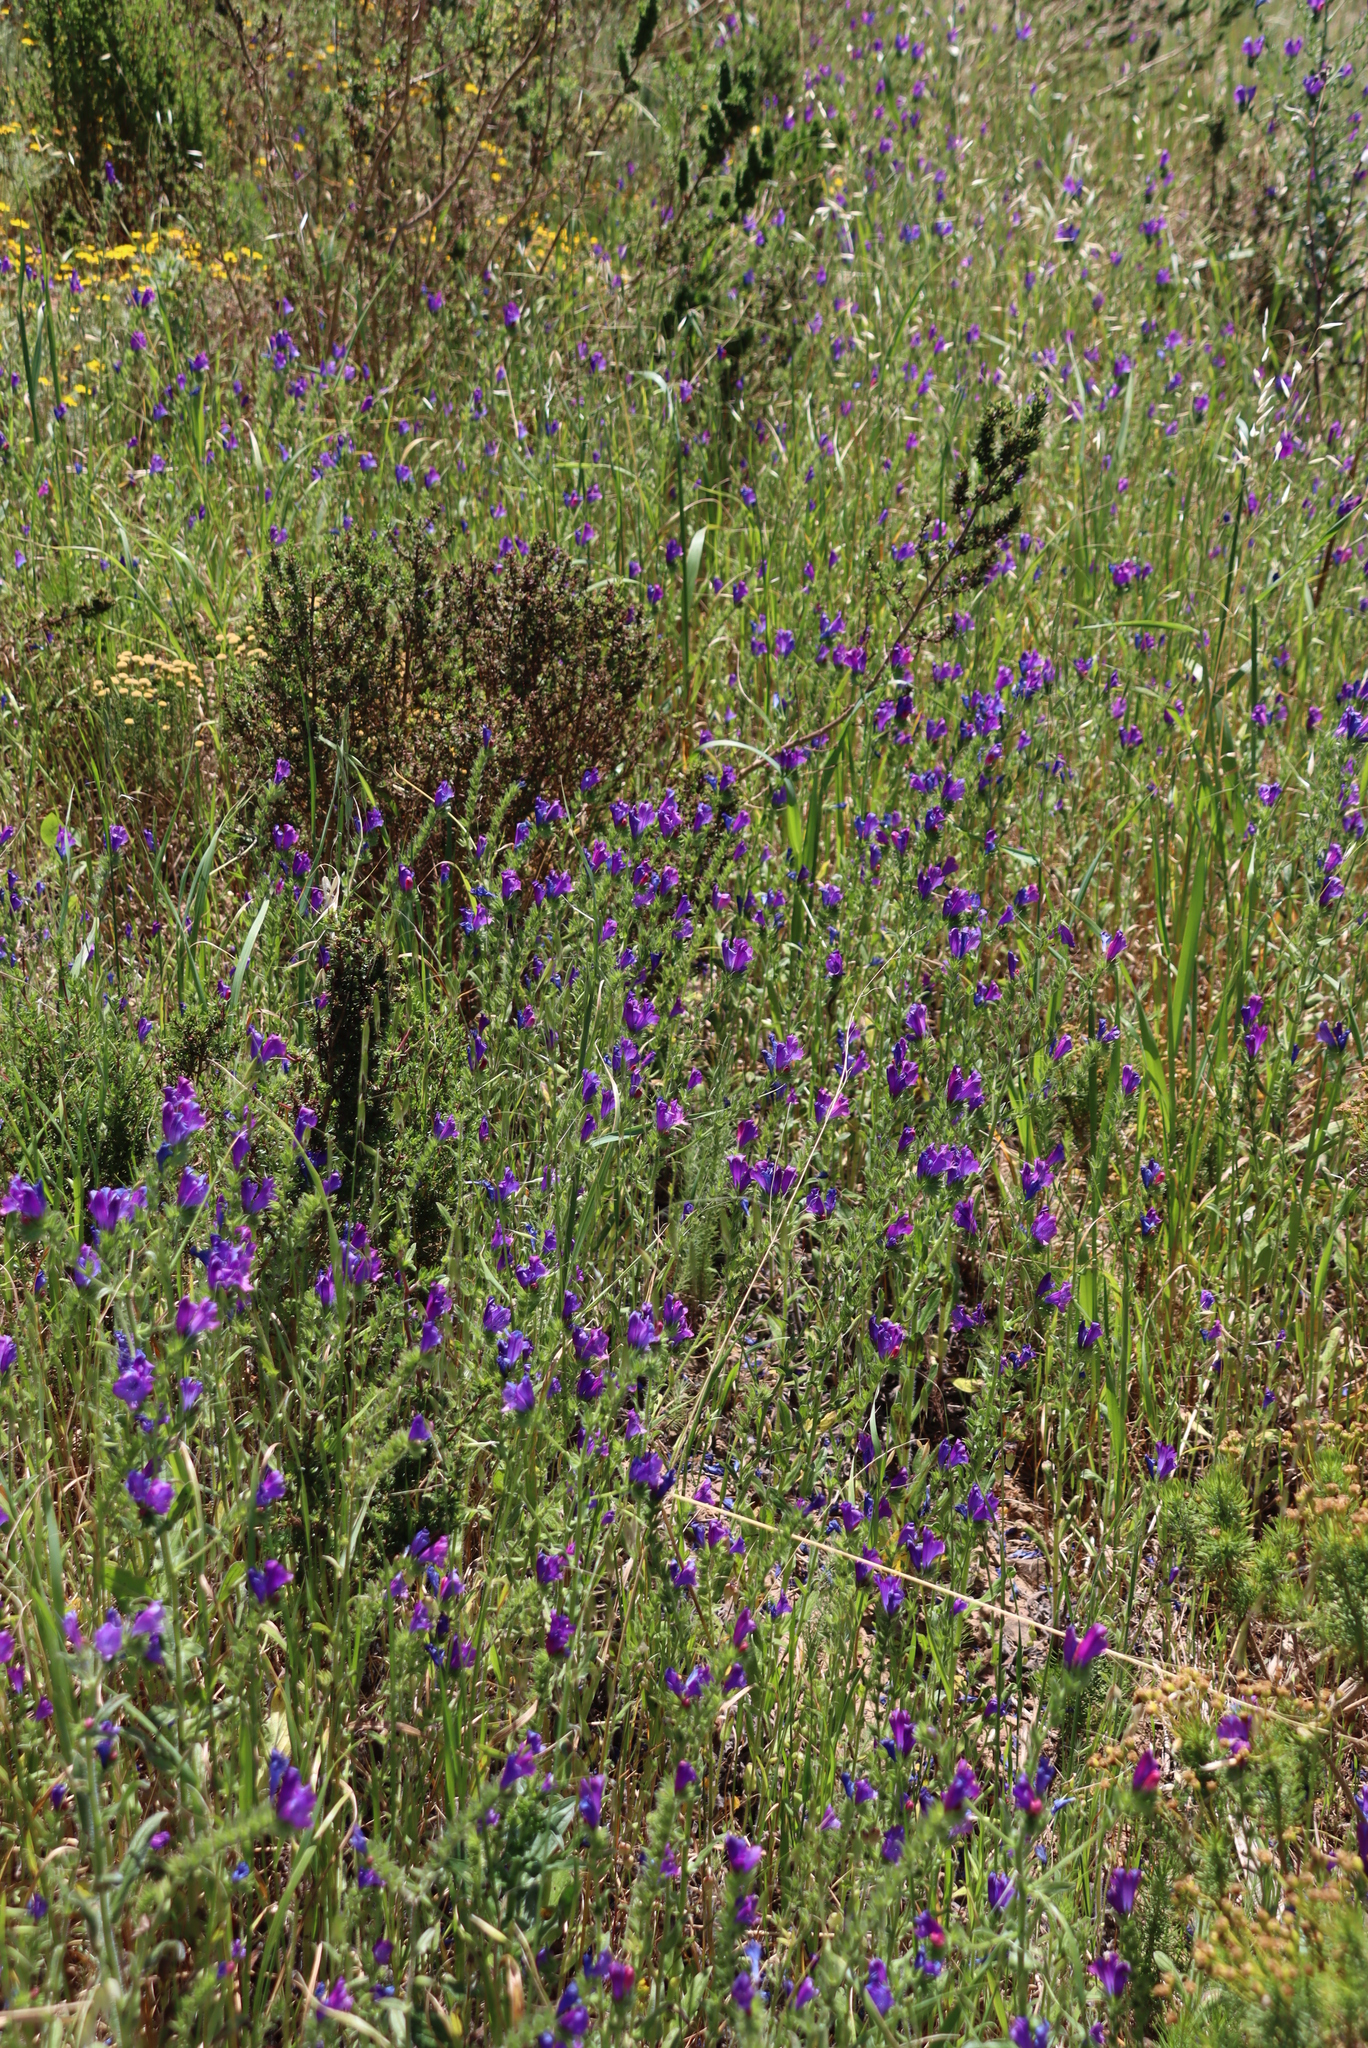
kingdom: Plantae
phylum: Tracheophyta
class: Magnoliopsida
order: Boraginales
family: Boraginaceae
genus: Echium
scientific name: Echium plantagineum
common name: Purple viper's-bugloss
